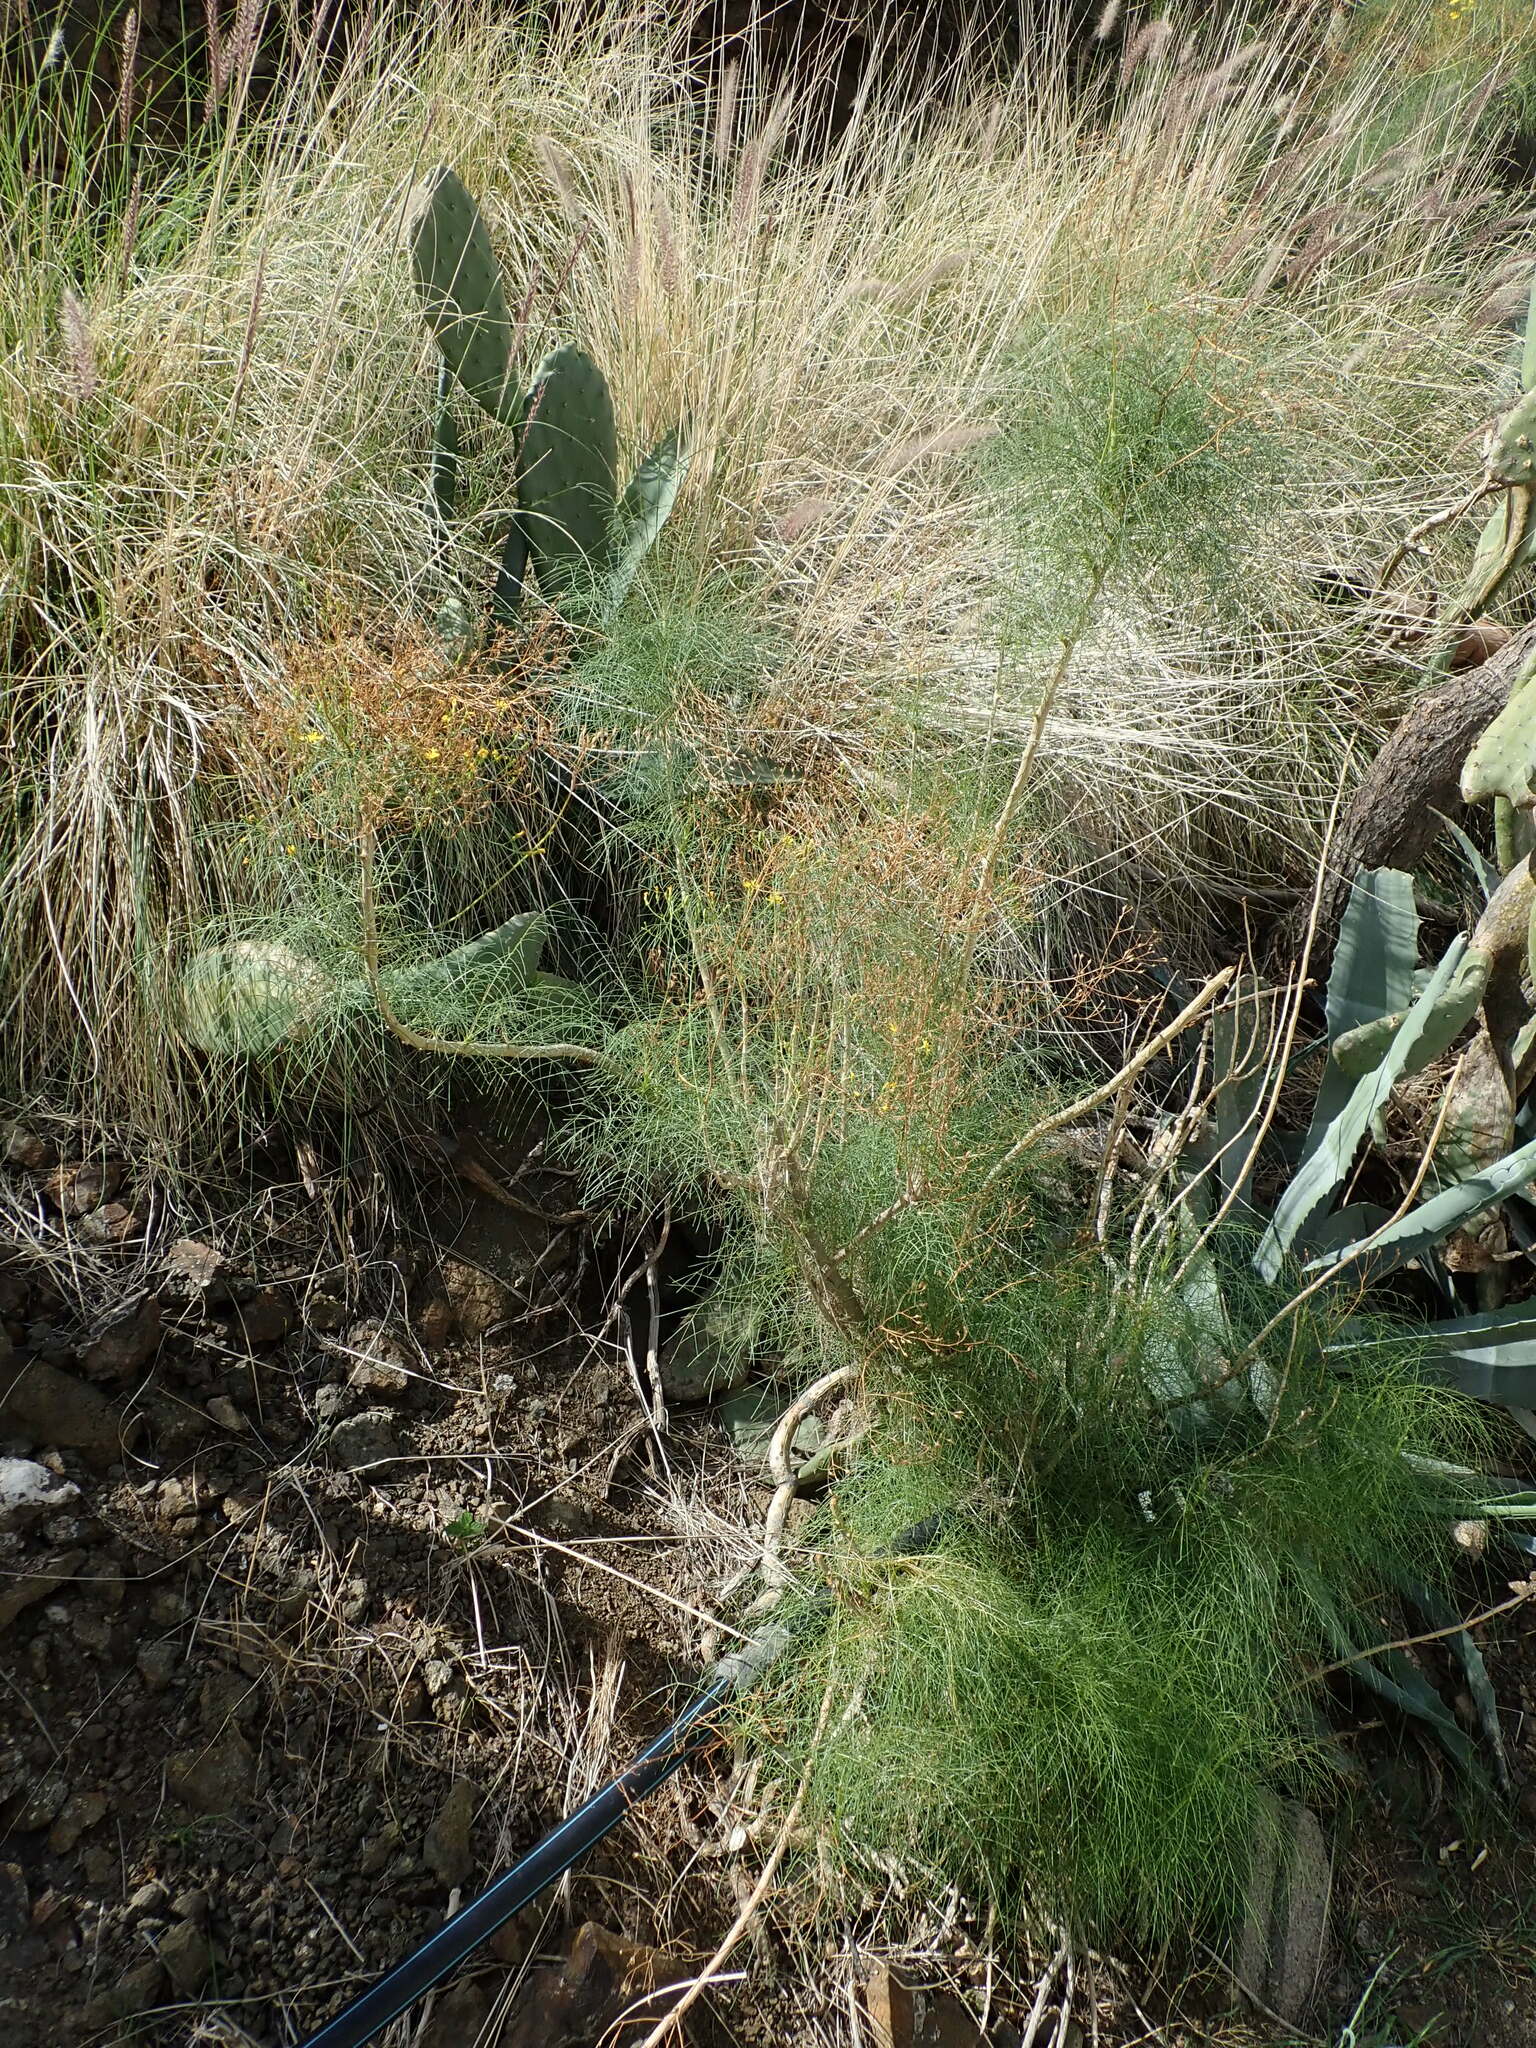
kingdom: Plantae
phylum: Tracheophyta
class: Magnoliopsida
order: Asterales
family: Asteraceae
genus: Sonchus
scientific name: Sonchus leptocephalus
